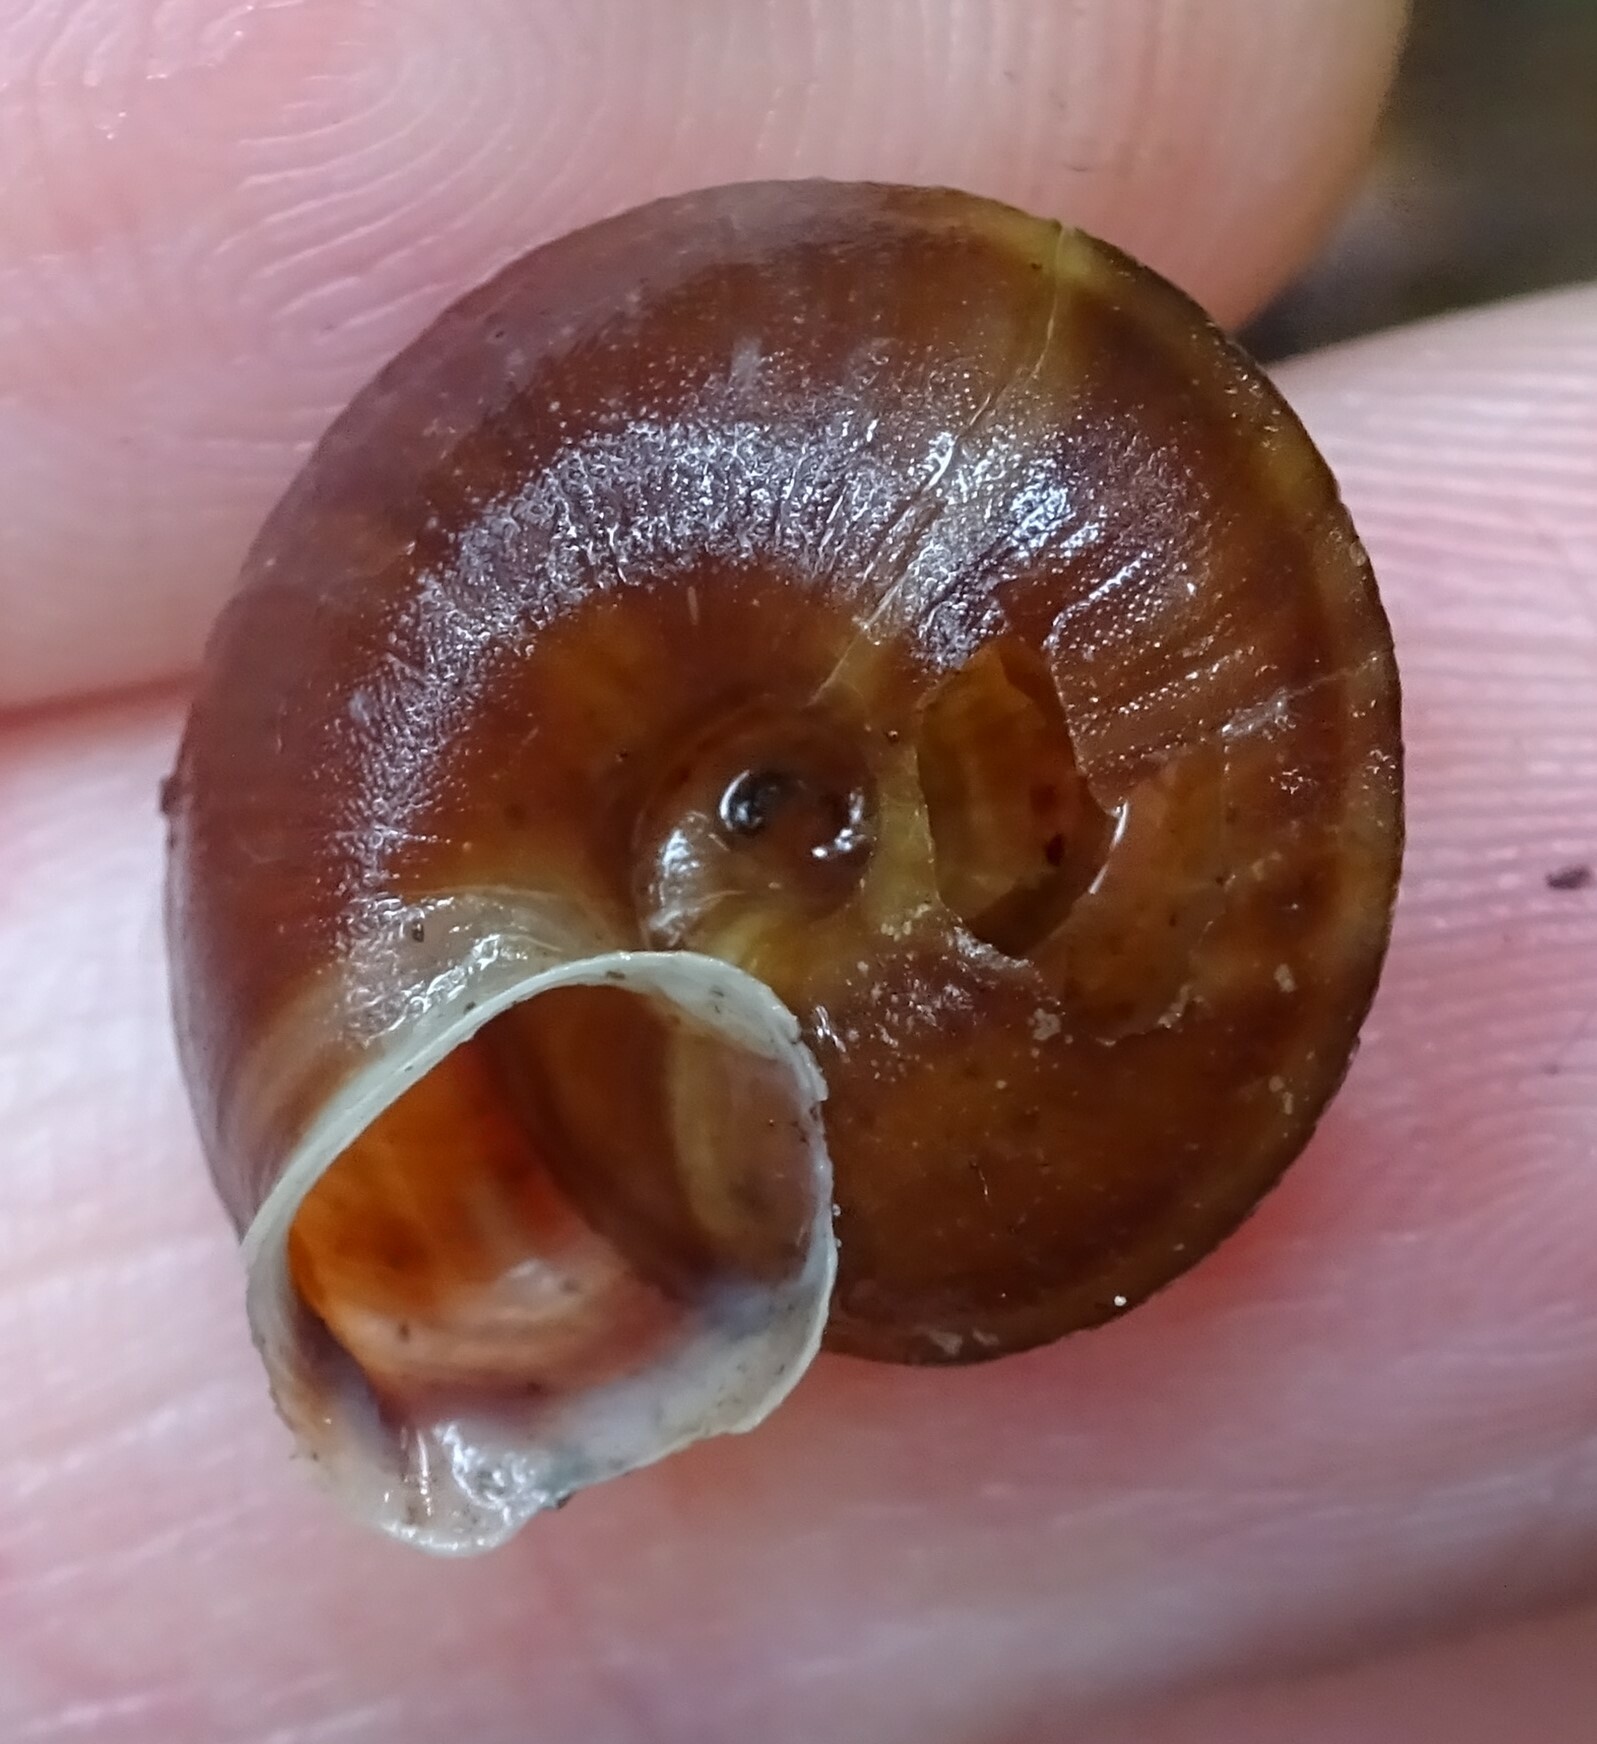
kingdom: Animalia
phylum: Mollusca
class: Gastropoda
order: Stylommatophora
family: Helicidae
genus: Helicigona
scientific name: Helicigona lapicida
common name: Lapidary snail
